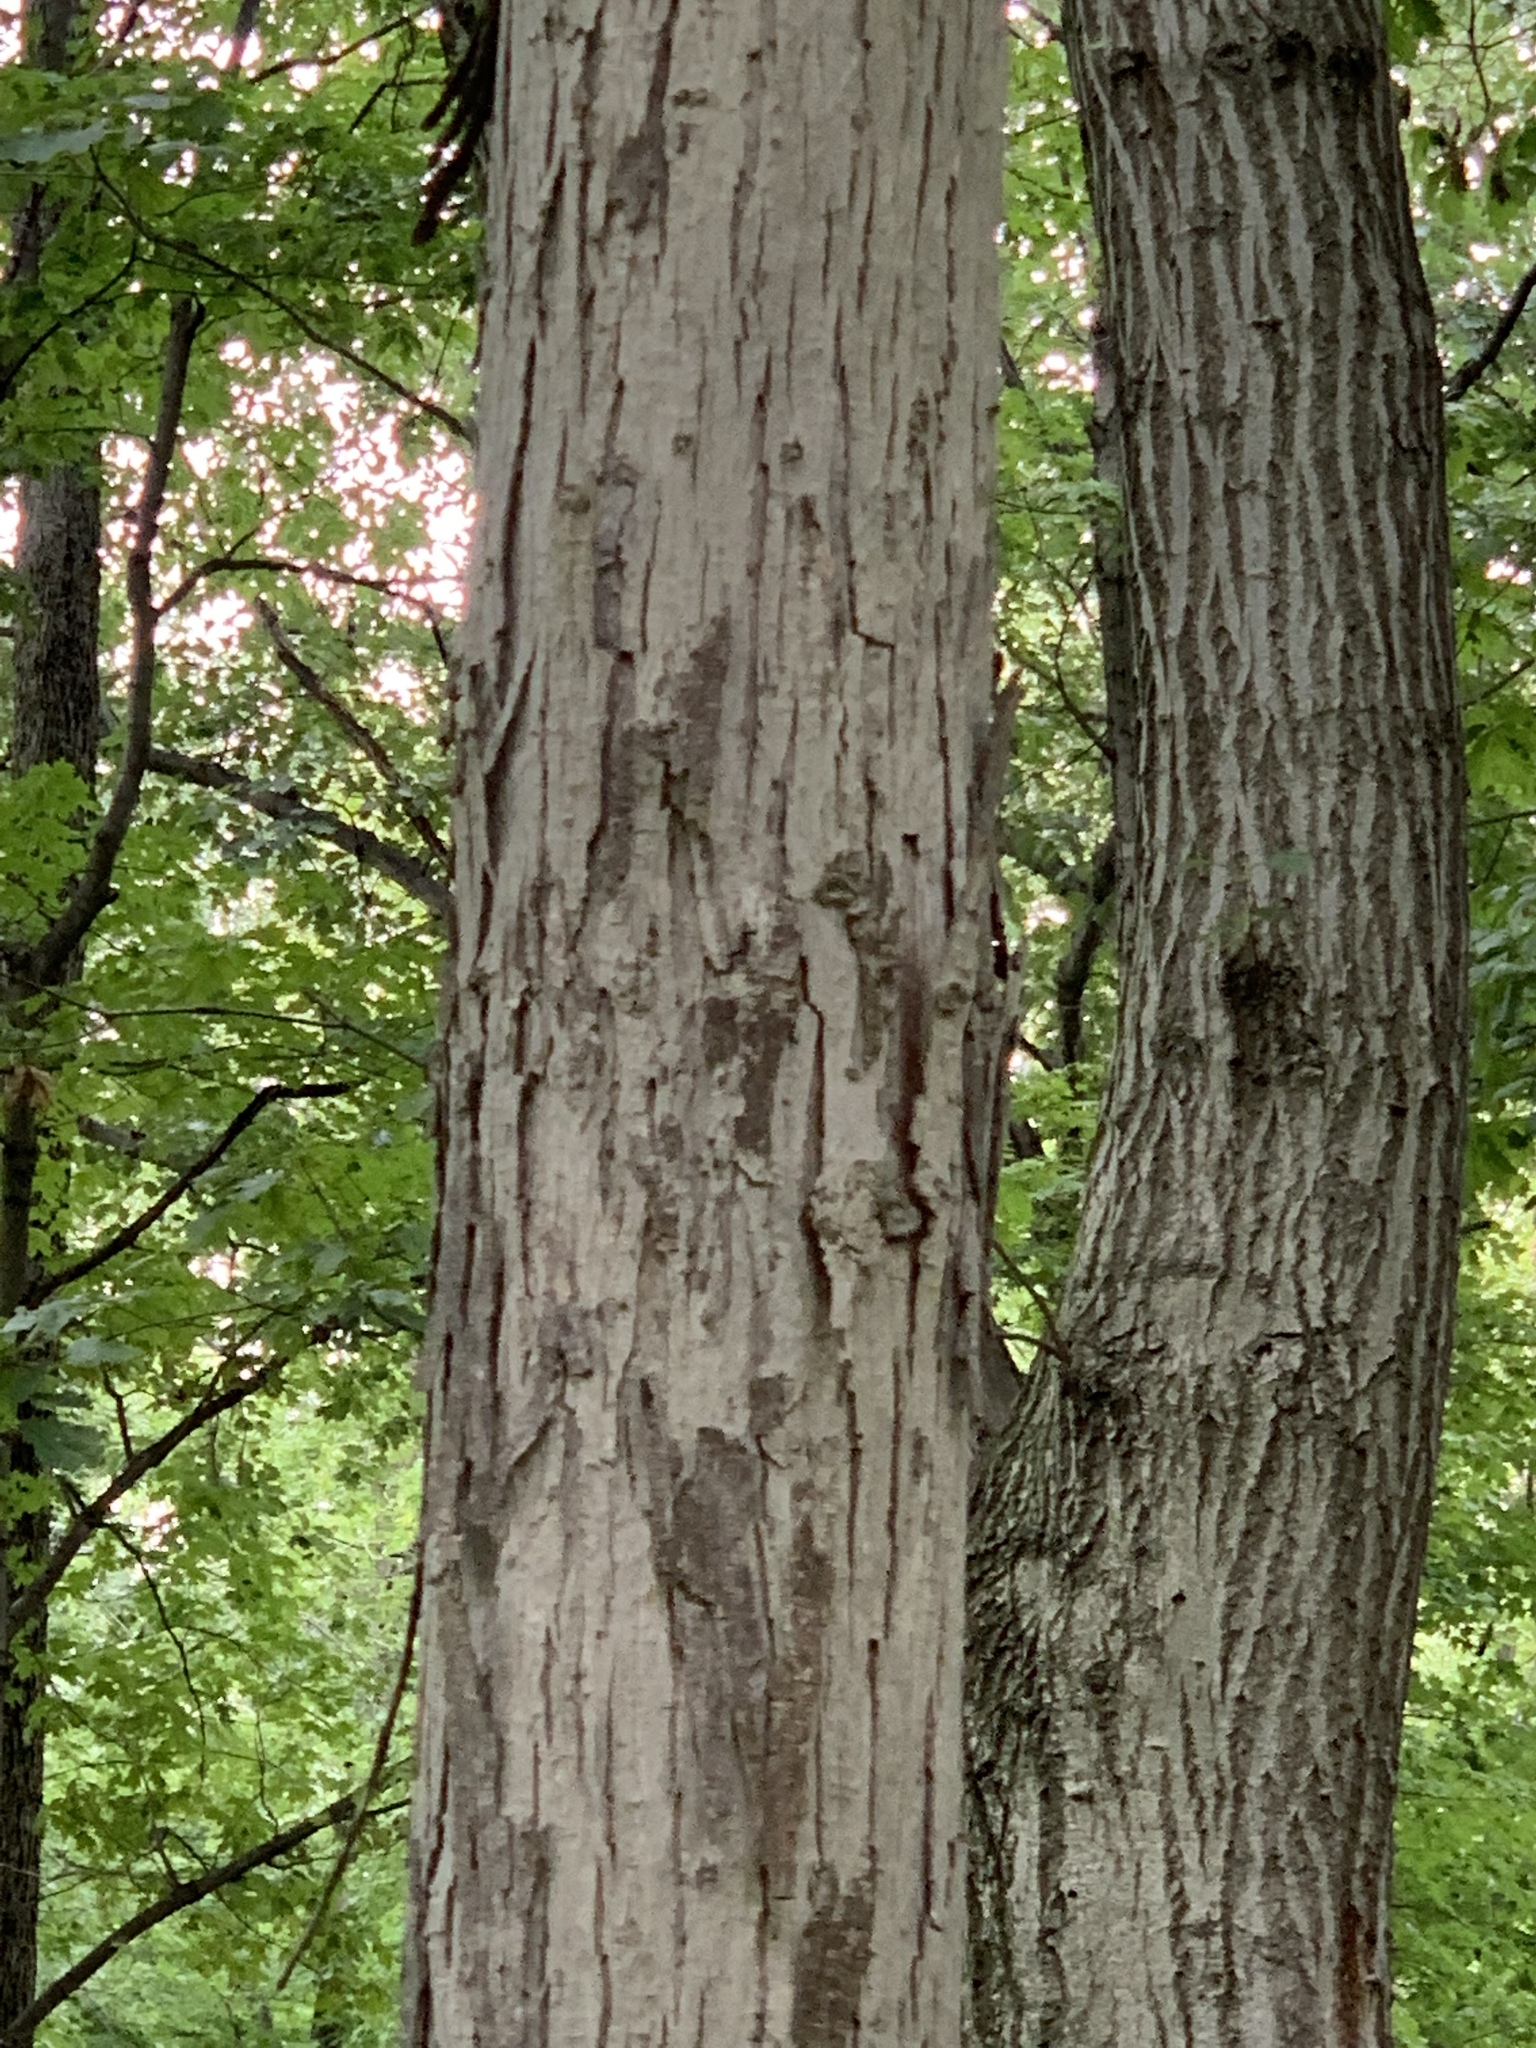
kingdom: Plantae
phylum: Tracheophyta
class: Magnoliopsida
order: Fagales
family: Juglandaceae
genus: Carya
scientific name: Carya ovata
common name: Shagbark hickory
